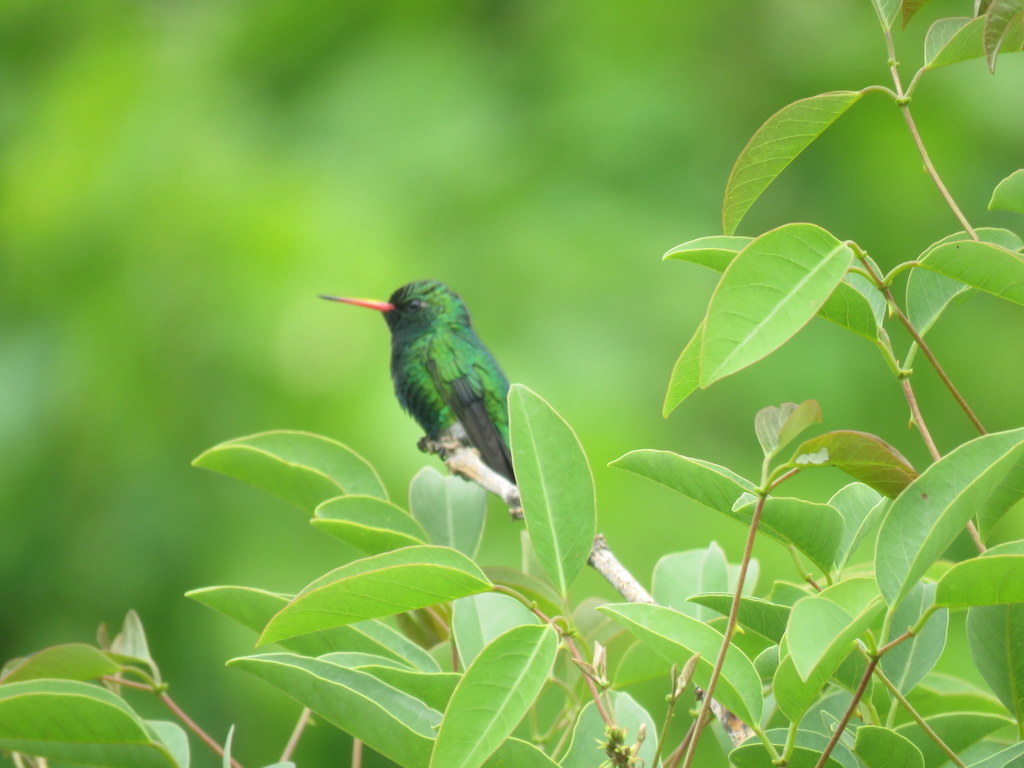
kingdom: Animalia
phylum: Chordata
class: Aves
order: Apodiformes
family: Trochilidae
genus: Chlorostilbon
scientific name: Chlorostilbon lucidus
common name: Glittering-bellied emerald
